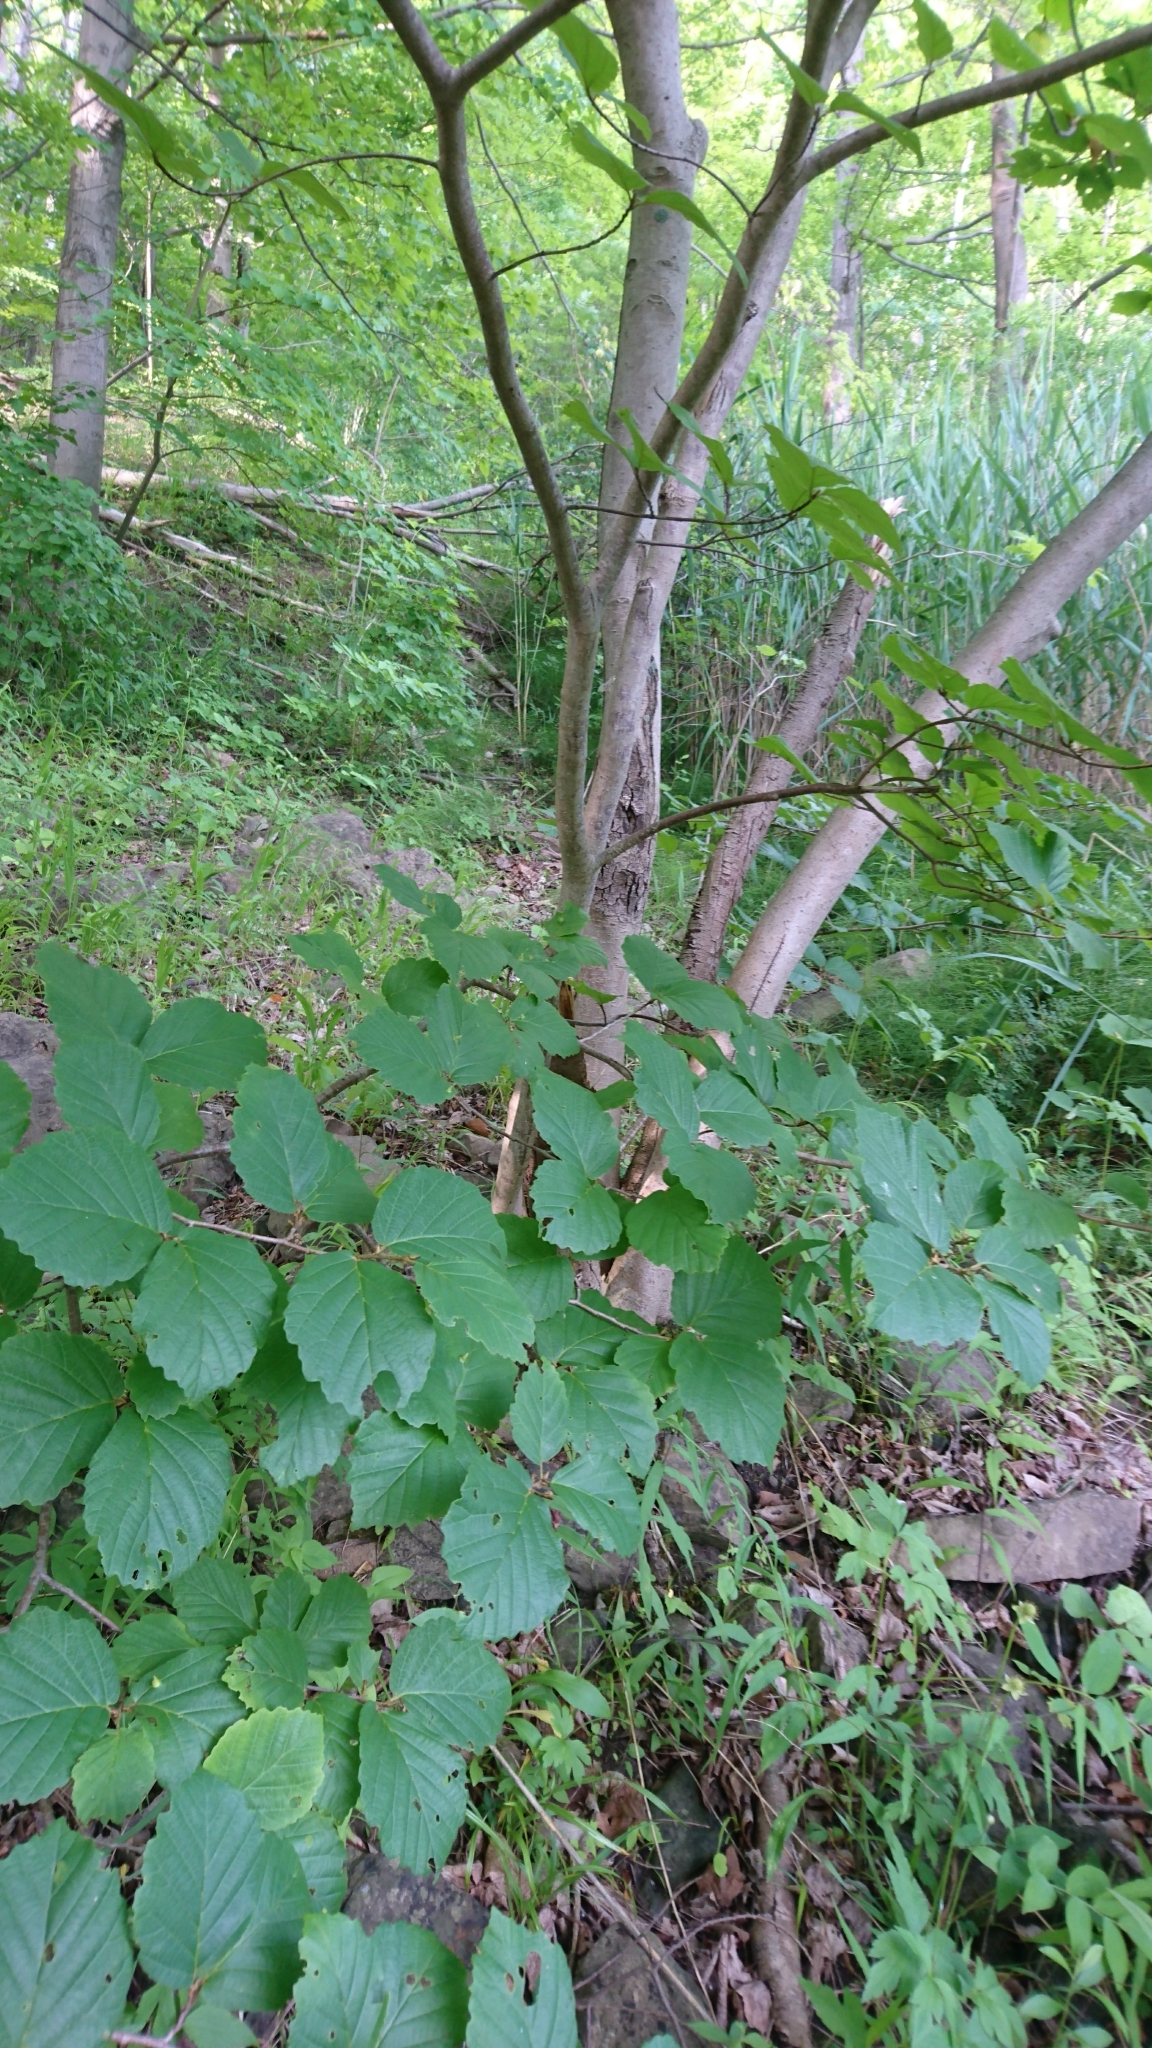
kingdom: Plantae
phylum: Tracheophyta
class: Magnoliopsida
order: Saxifragales
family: Hamamelidaceae
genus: Hamamelis
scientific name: Hamamelis virginiana
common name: Witch-hazel
